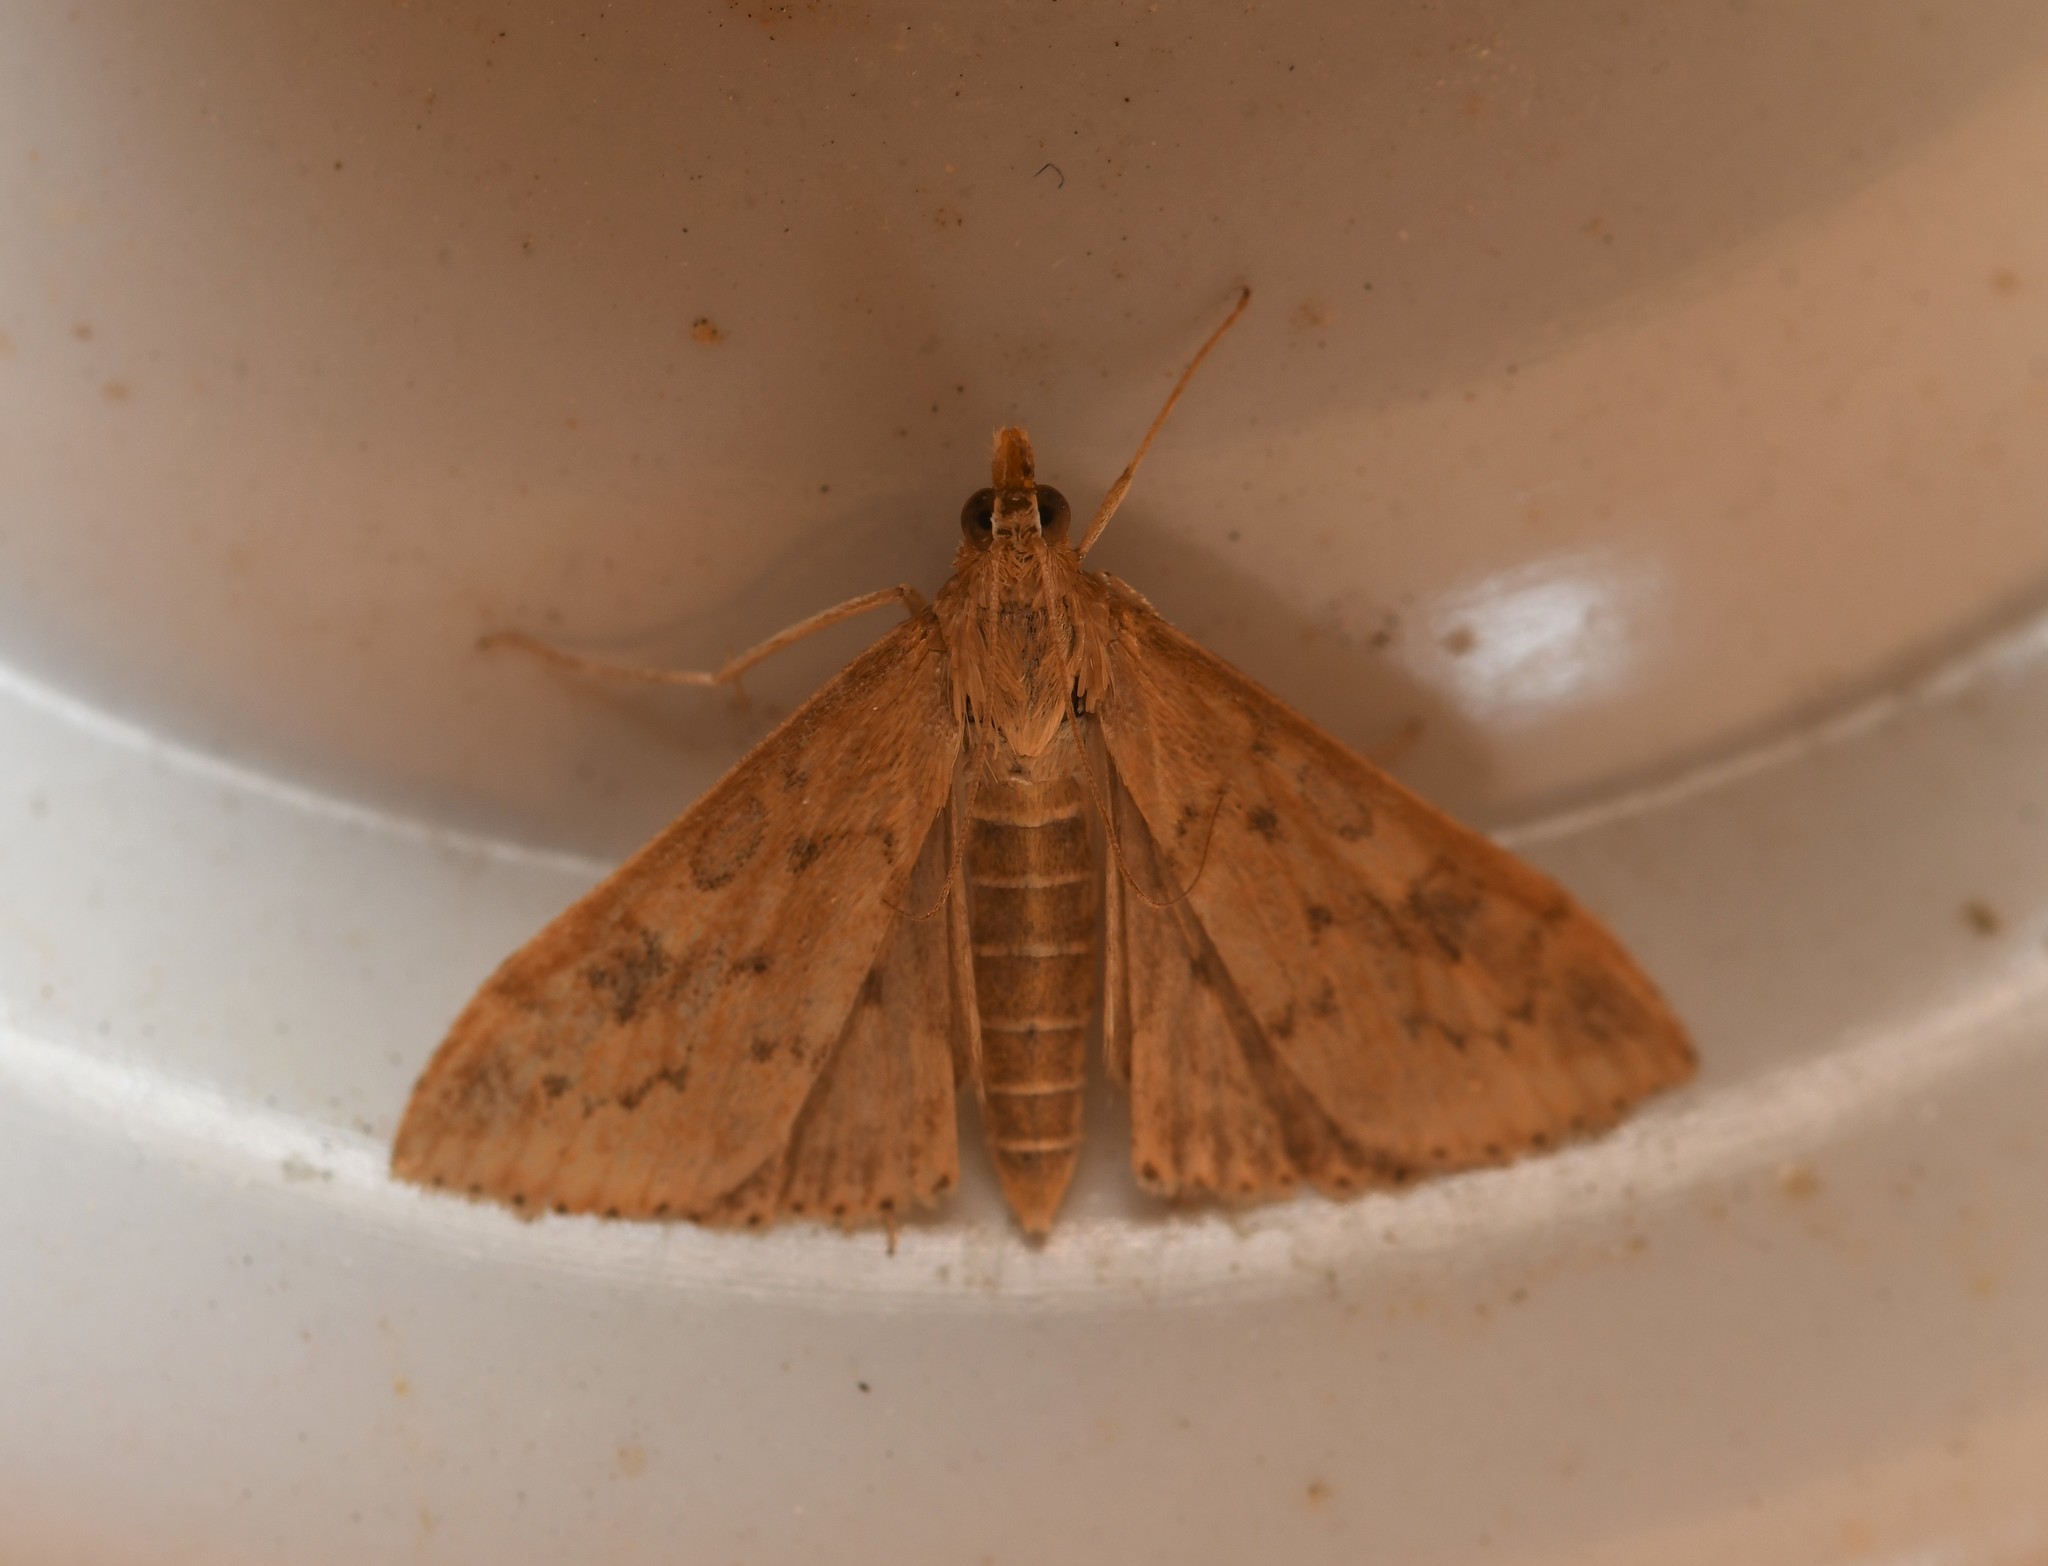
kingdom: Animalia
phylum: Arthropoda
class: Insecta
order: Lepidoptera
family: Crambidae
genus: Udea
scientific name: Udea ferrugalis
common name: Rusty dot
